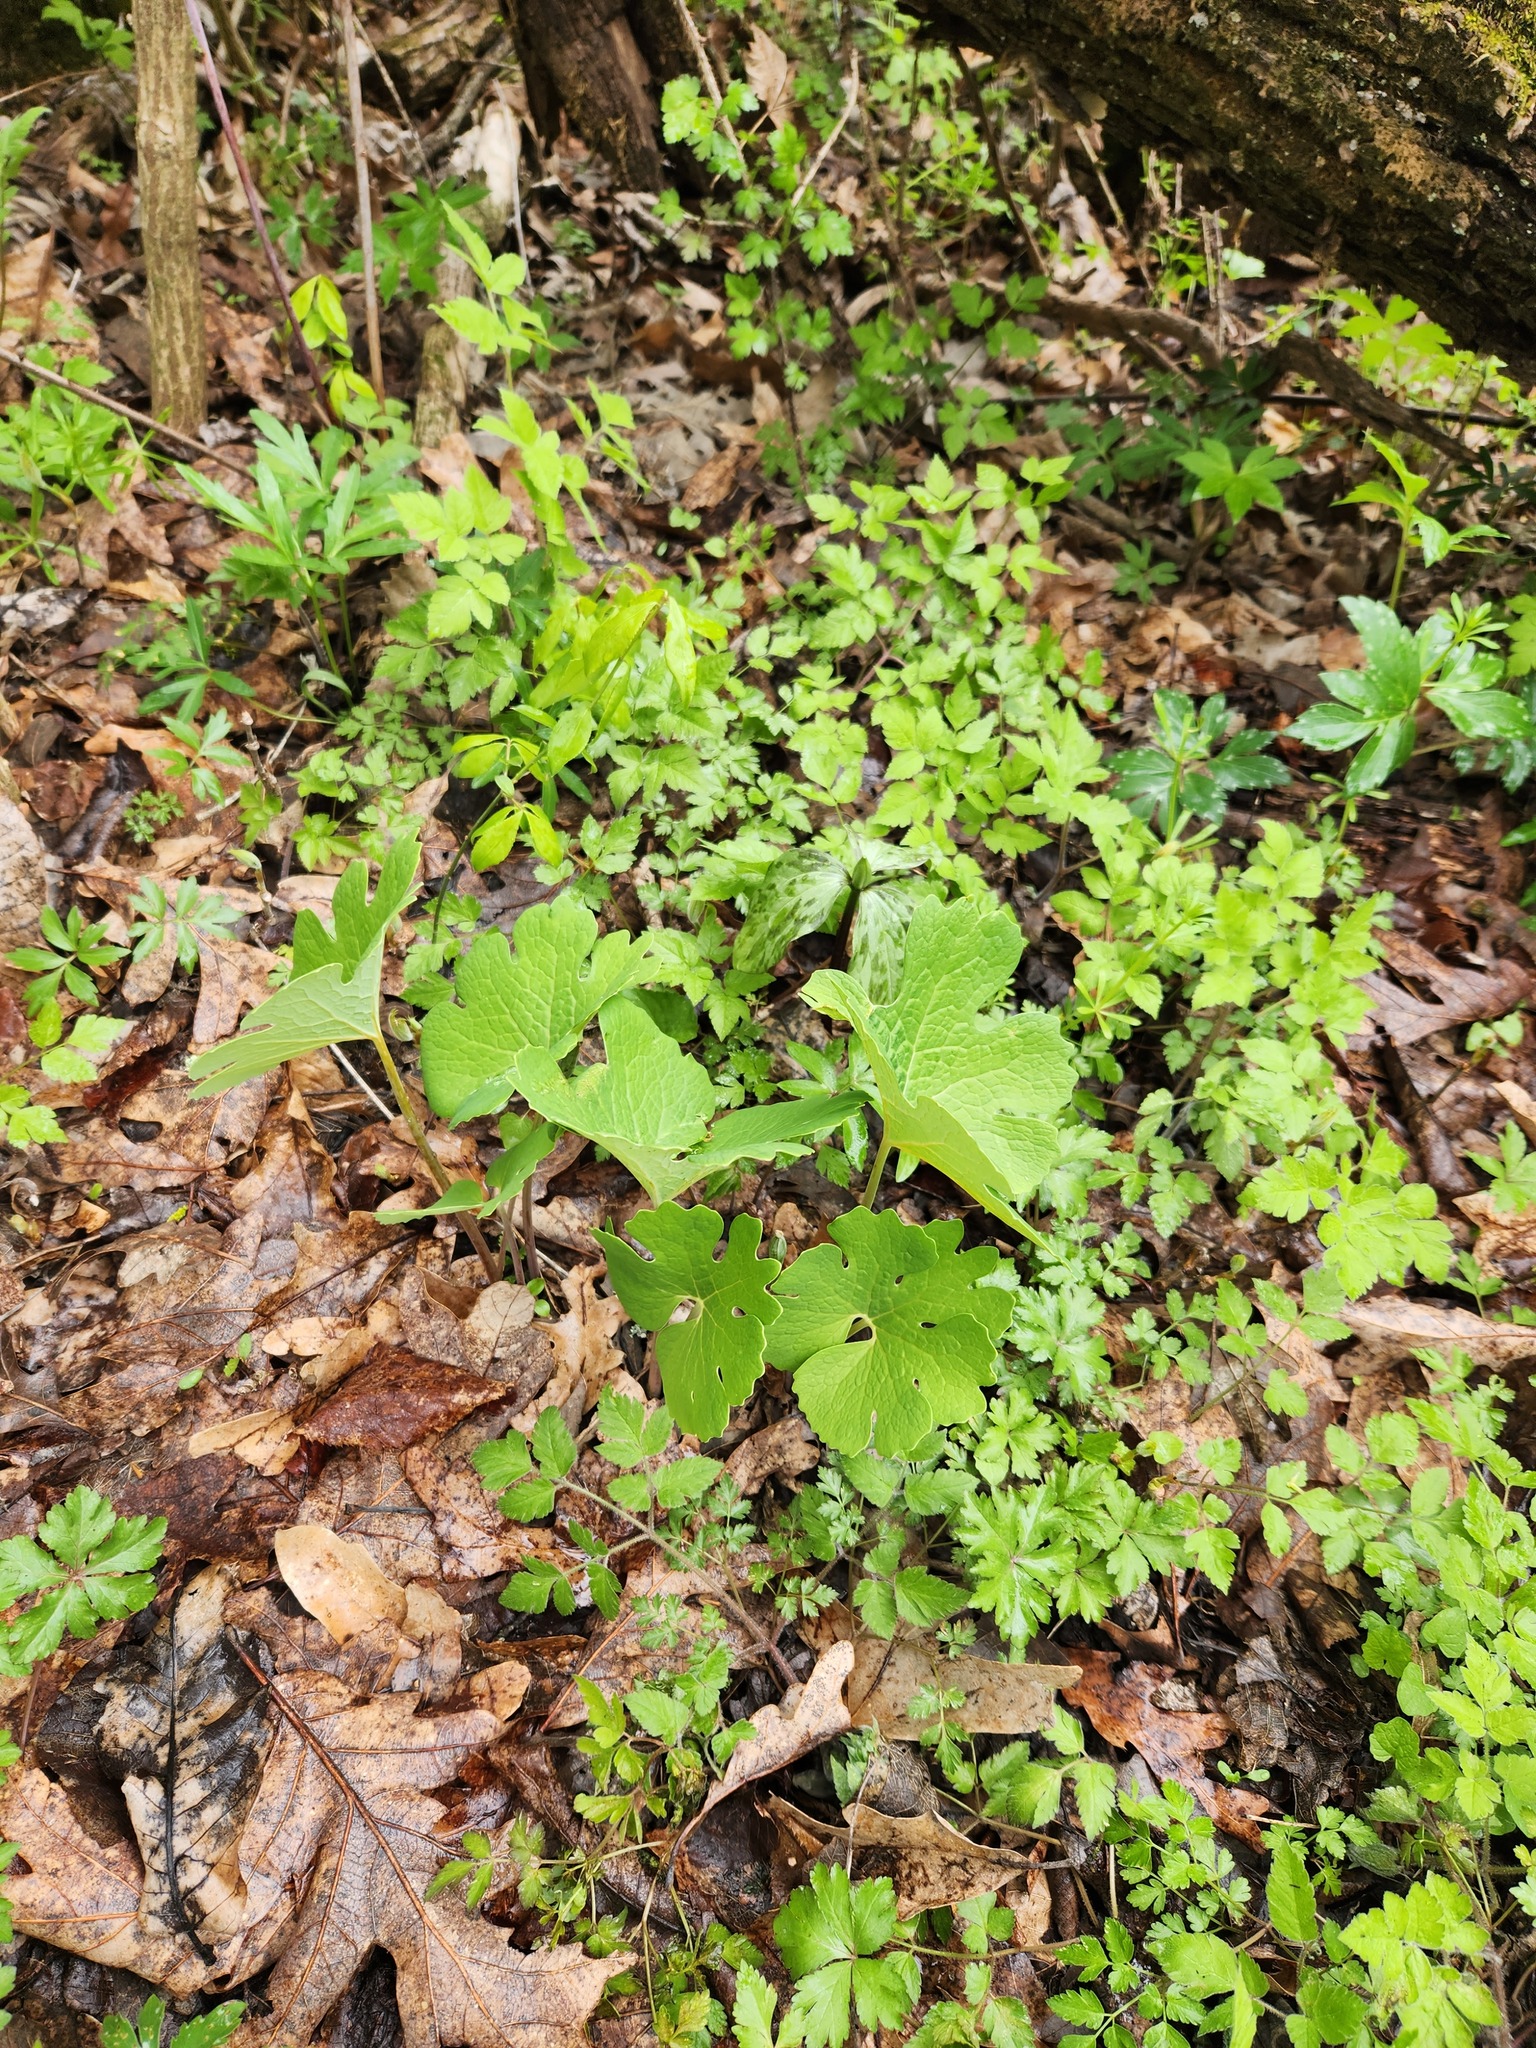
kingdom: Plantae
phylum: Tracheophyta
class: Magnoliopsida
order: Ranunculales
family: Papaveraceae
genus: Sanguinaria
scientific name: Sanguinaria canadensis
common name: Bloodroot
